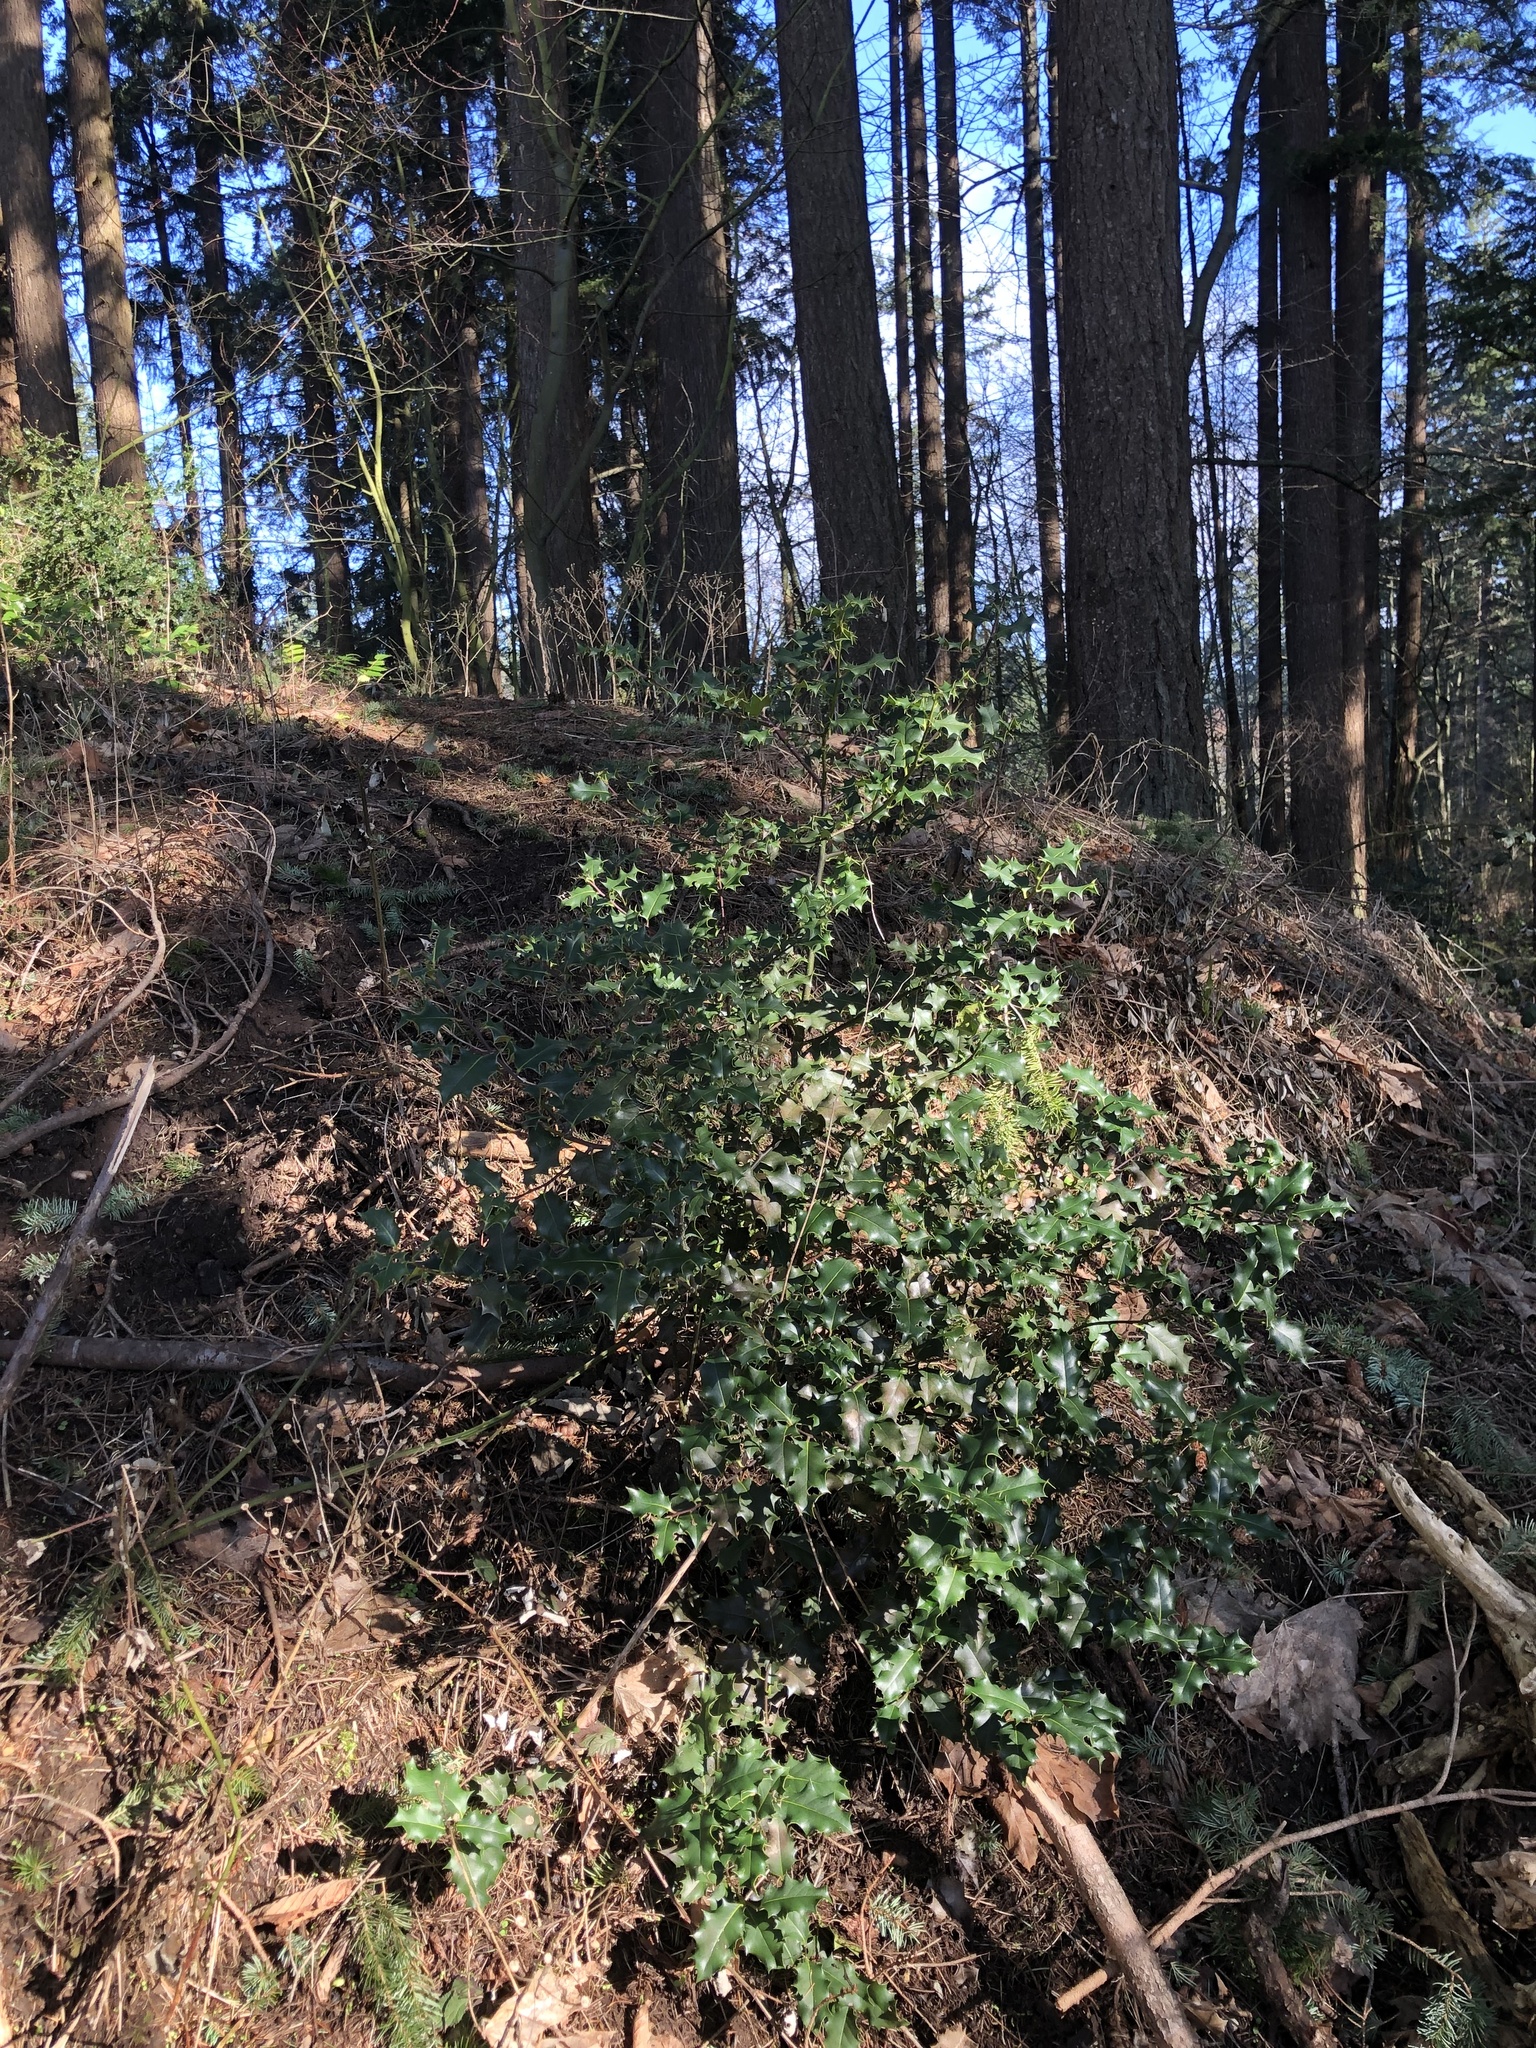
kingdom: Plantae
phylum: Tracheophyta
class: Magnoliopsida
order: Aquifoliales
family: Aquifoliaceae
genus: Ilex
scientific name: Ilex aquifolium
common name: English holly
